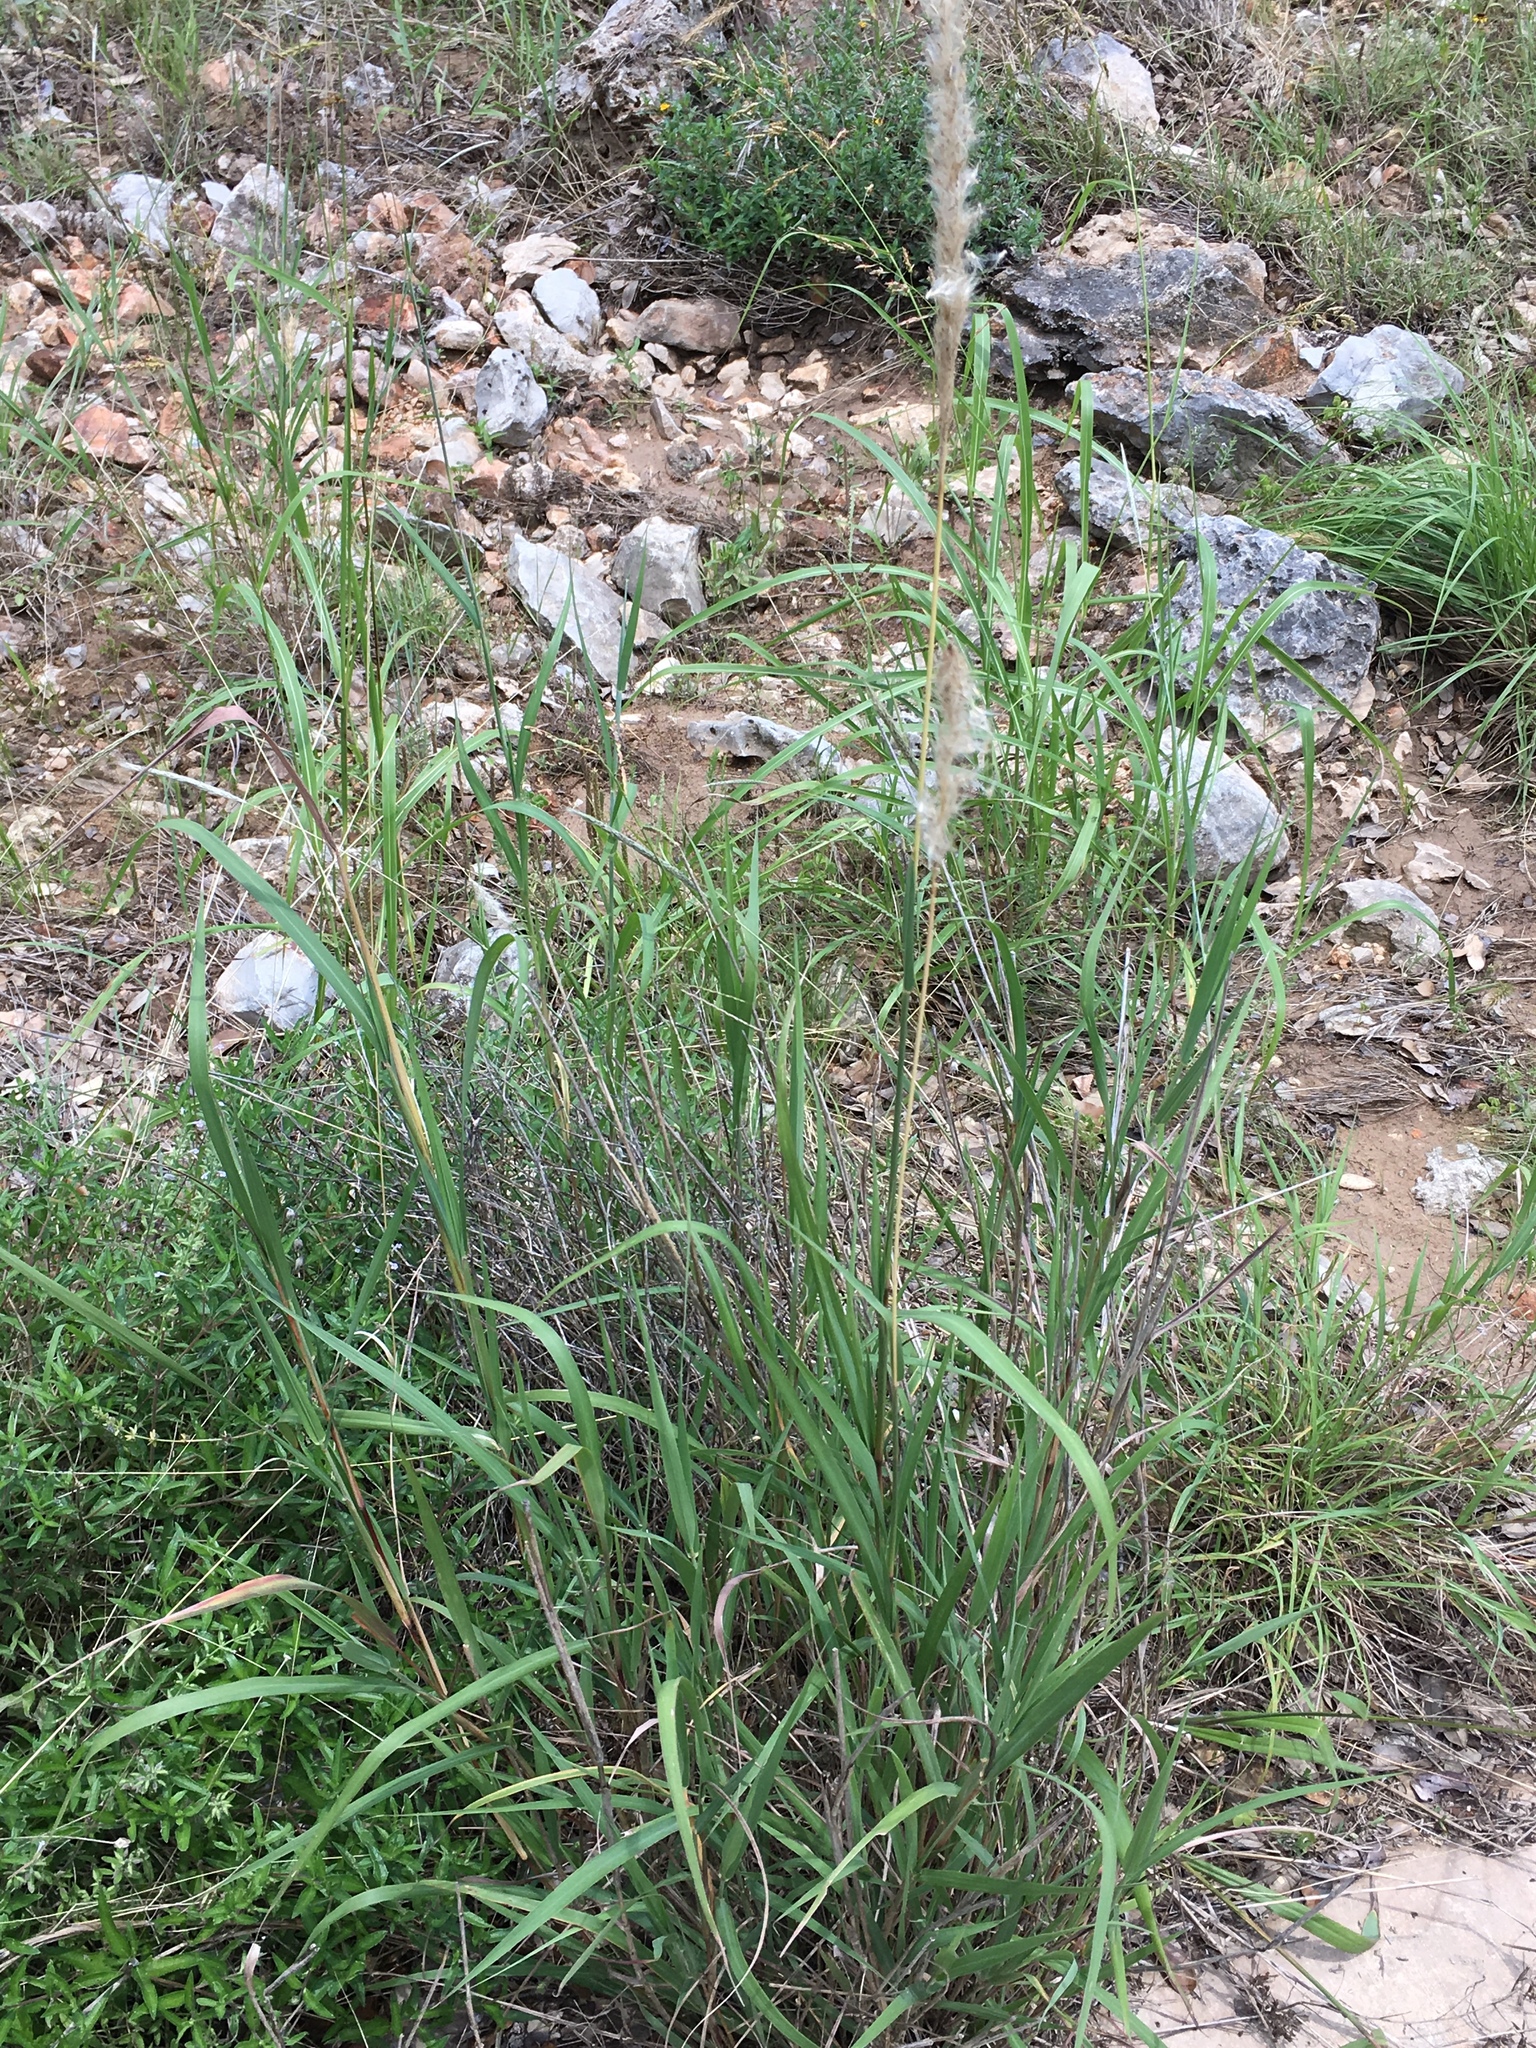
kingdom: Plantae
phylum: Tracheophyta
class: Liliopsida
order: Poales
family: Poaceae
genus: Bothriochloa
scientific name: Bothriochloa torreyana
